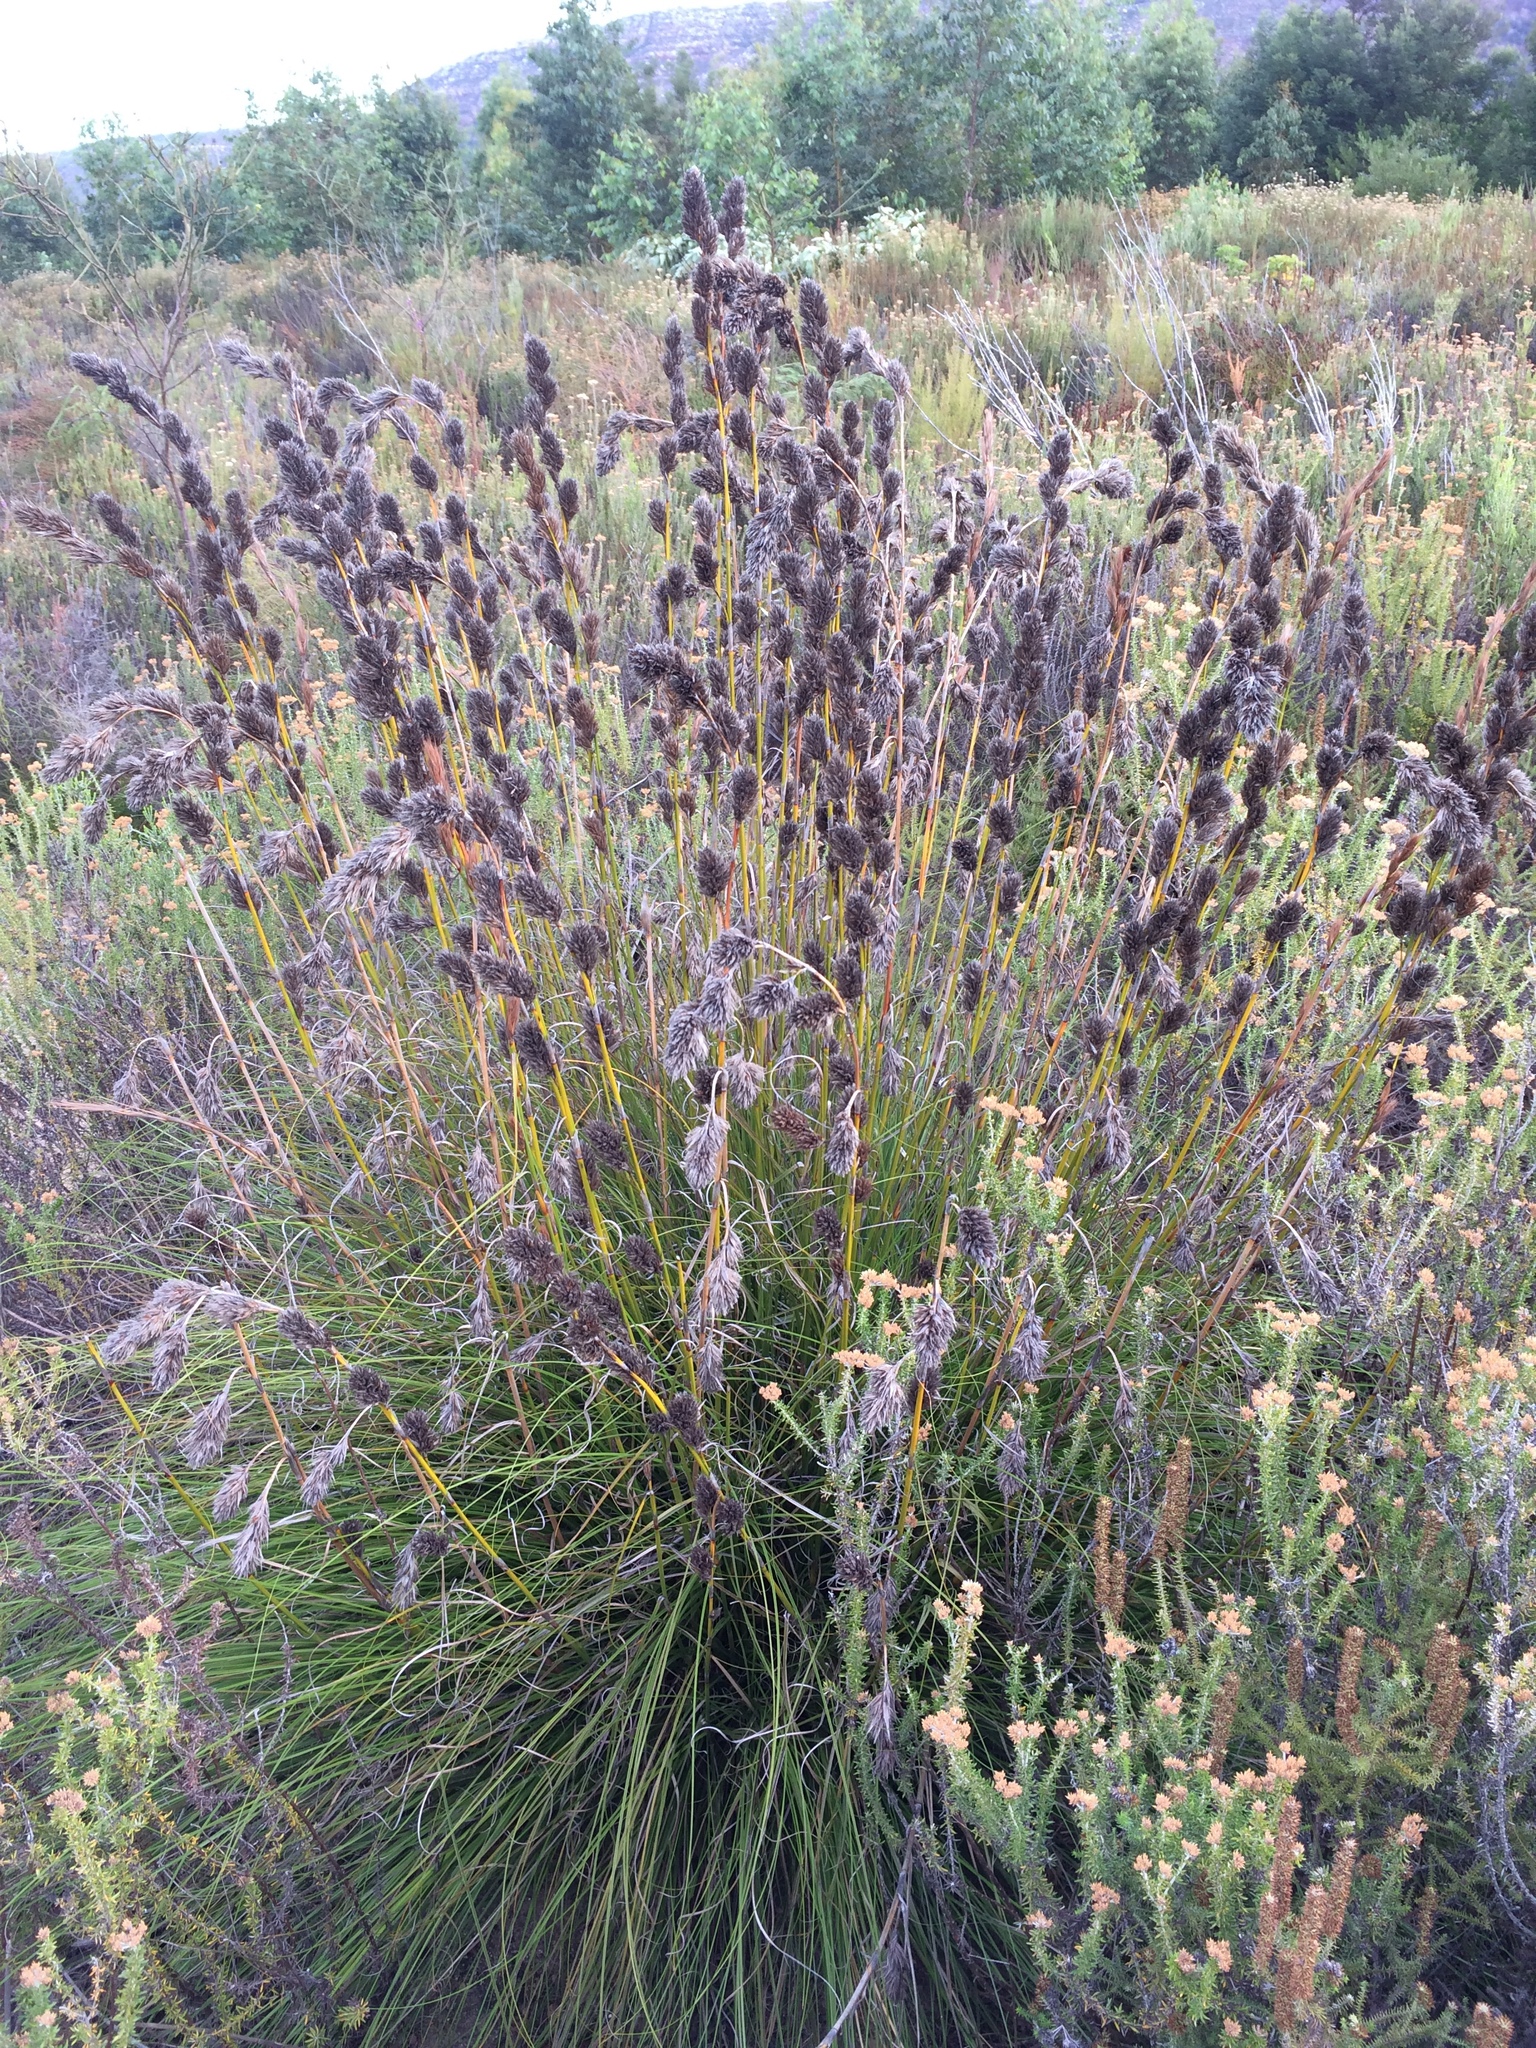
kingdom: Plantae
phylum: Tracheophyta
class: Liliopsida
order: Poales
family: Cyperaceae
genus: Tetraria
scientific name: Tetraria bromoides
